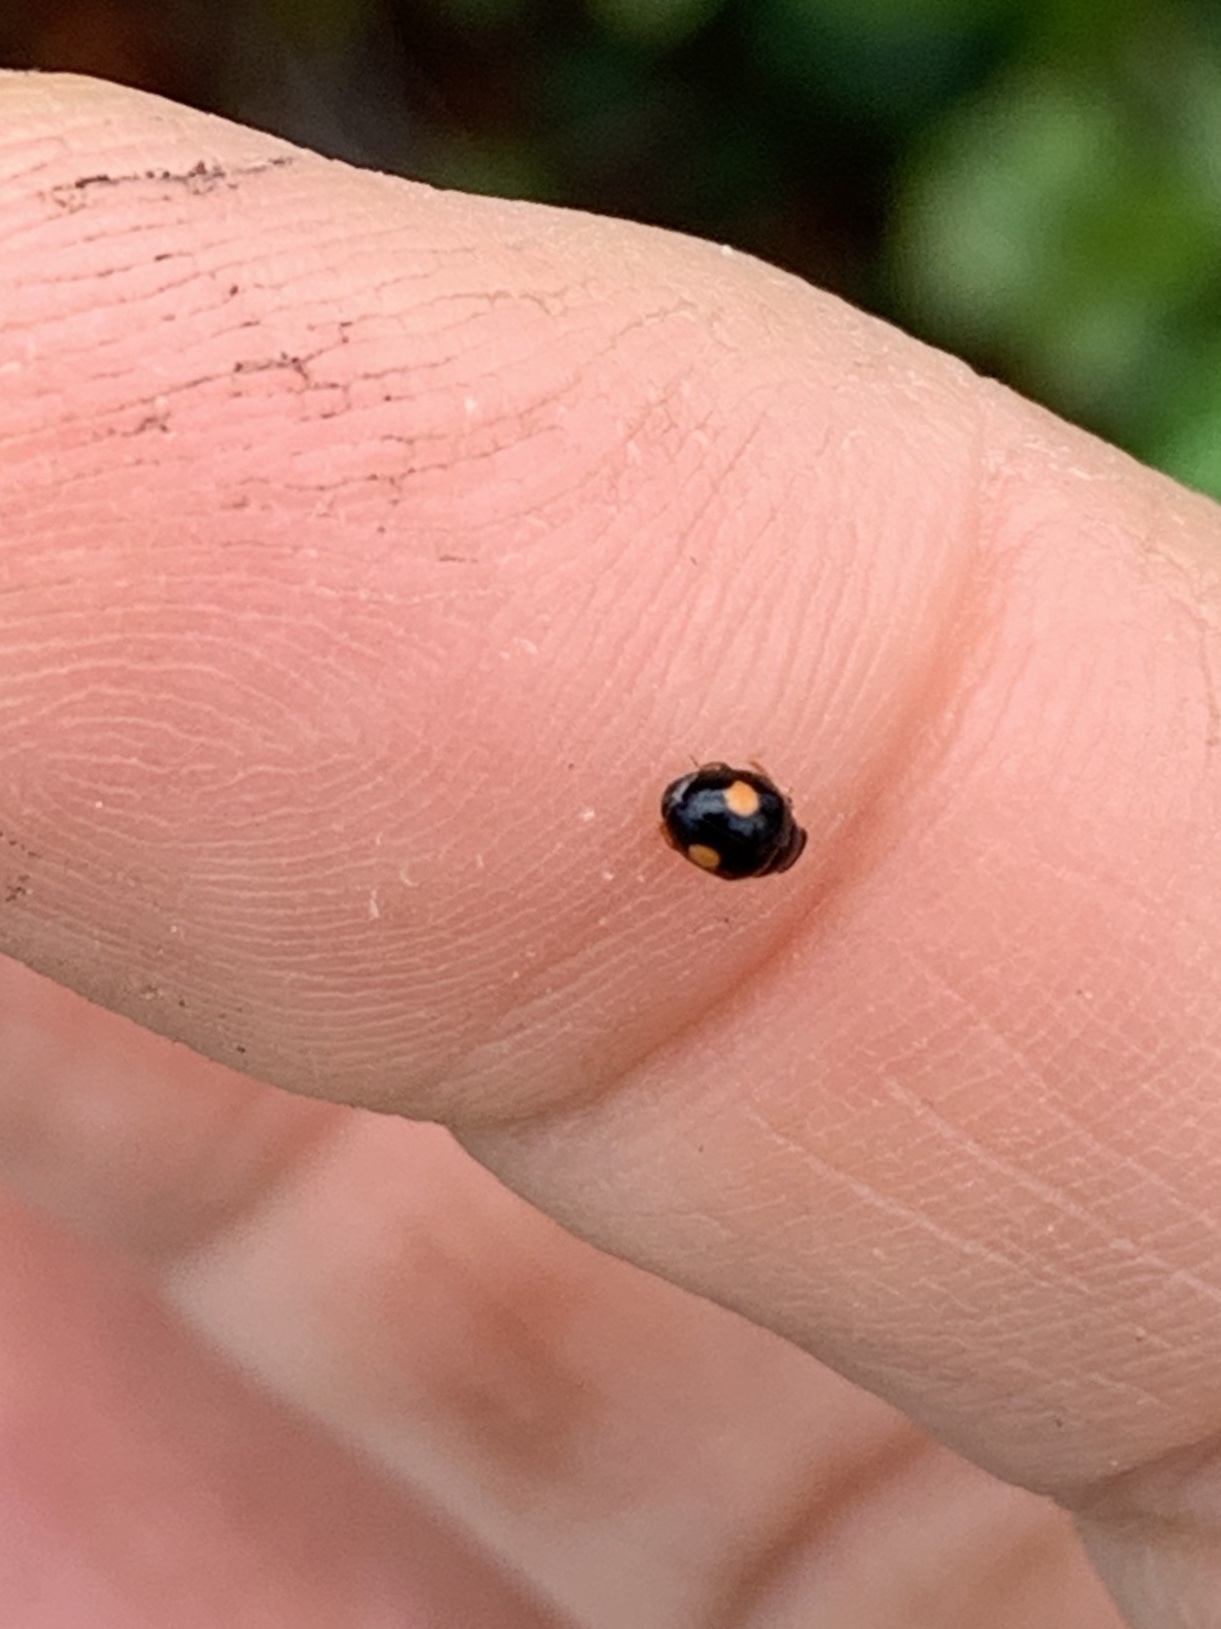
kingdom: Animalia
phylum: Arthropoda
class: Insecta
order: Coleoptera
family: Coccinellidae
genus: Hyperaspis
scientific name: Hyperaspis ornatella
